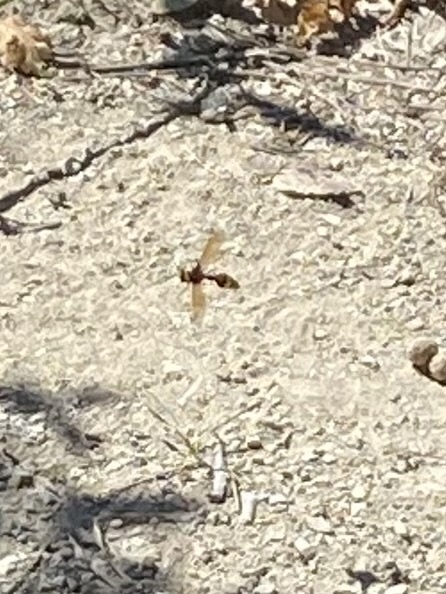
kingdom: Animalia
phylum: Arthropoda
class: Insecta
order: Hymenoptera
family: Eumenidae
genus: Delta
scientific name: Delta unguiculatum
